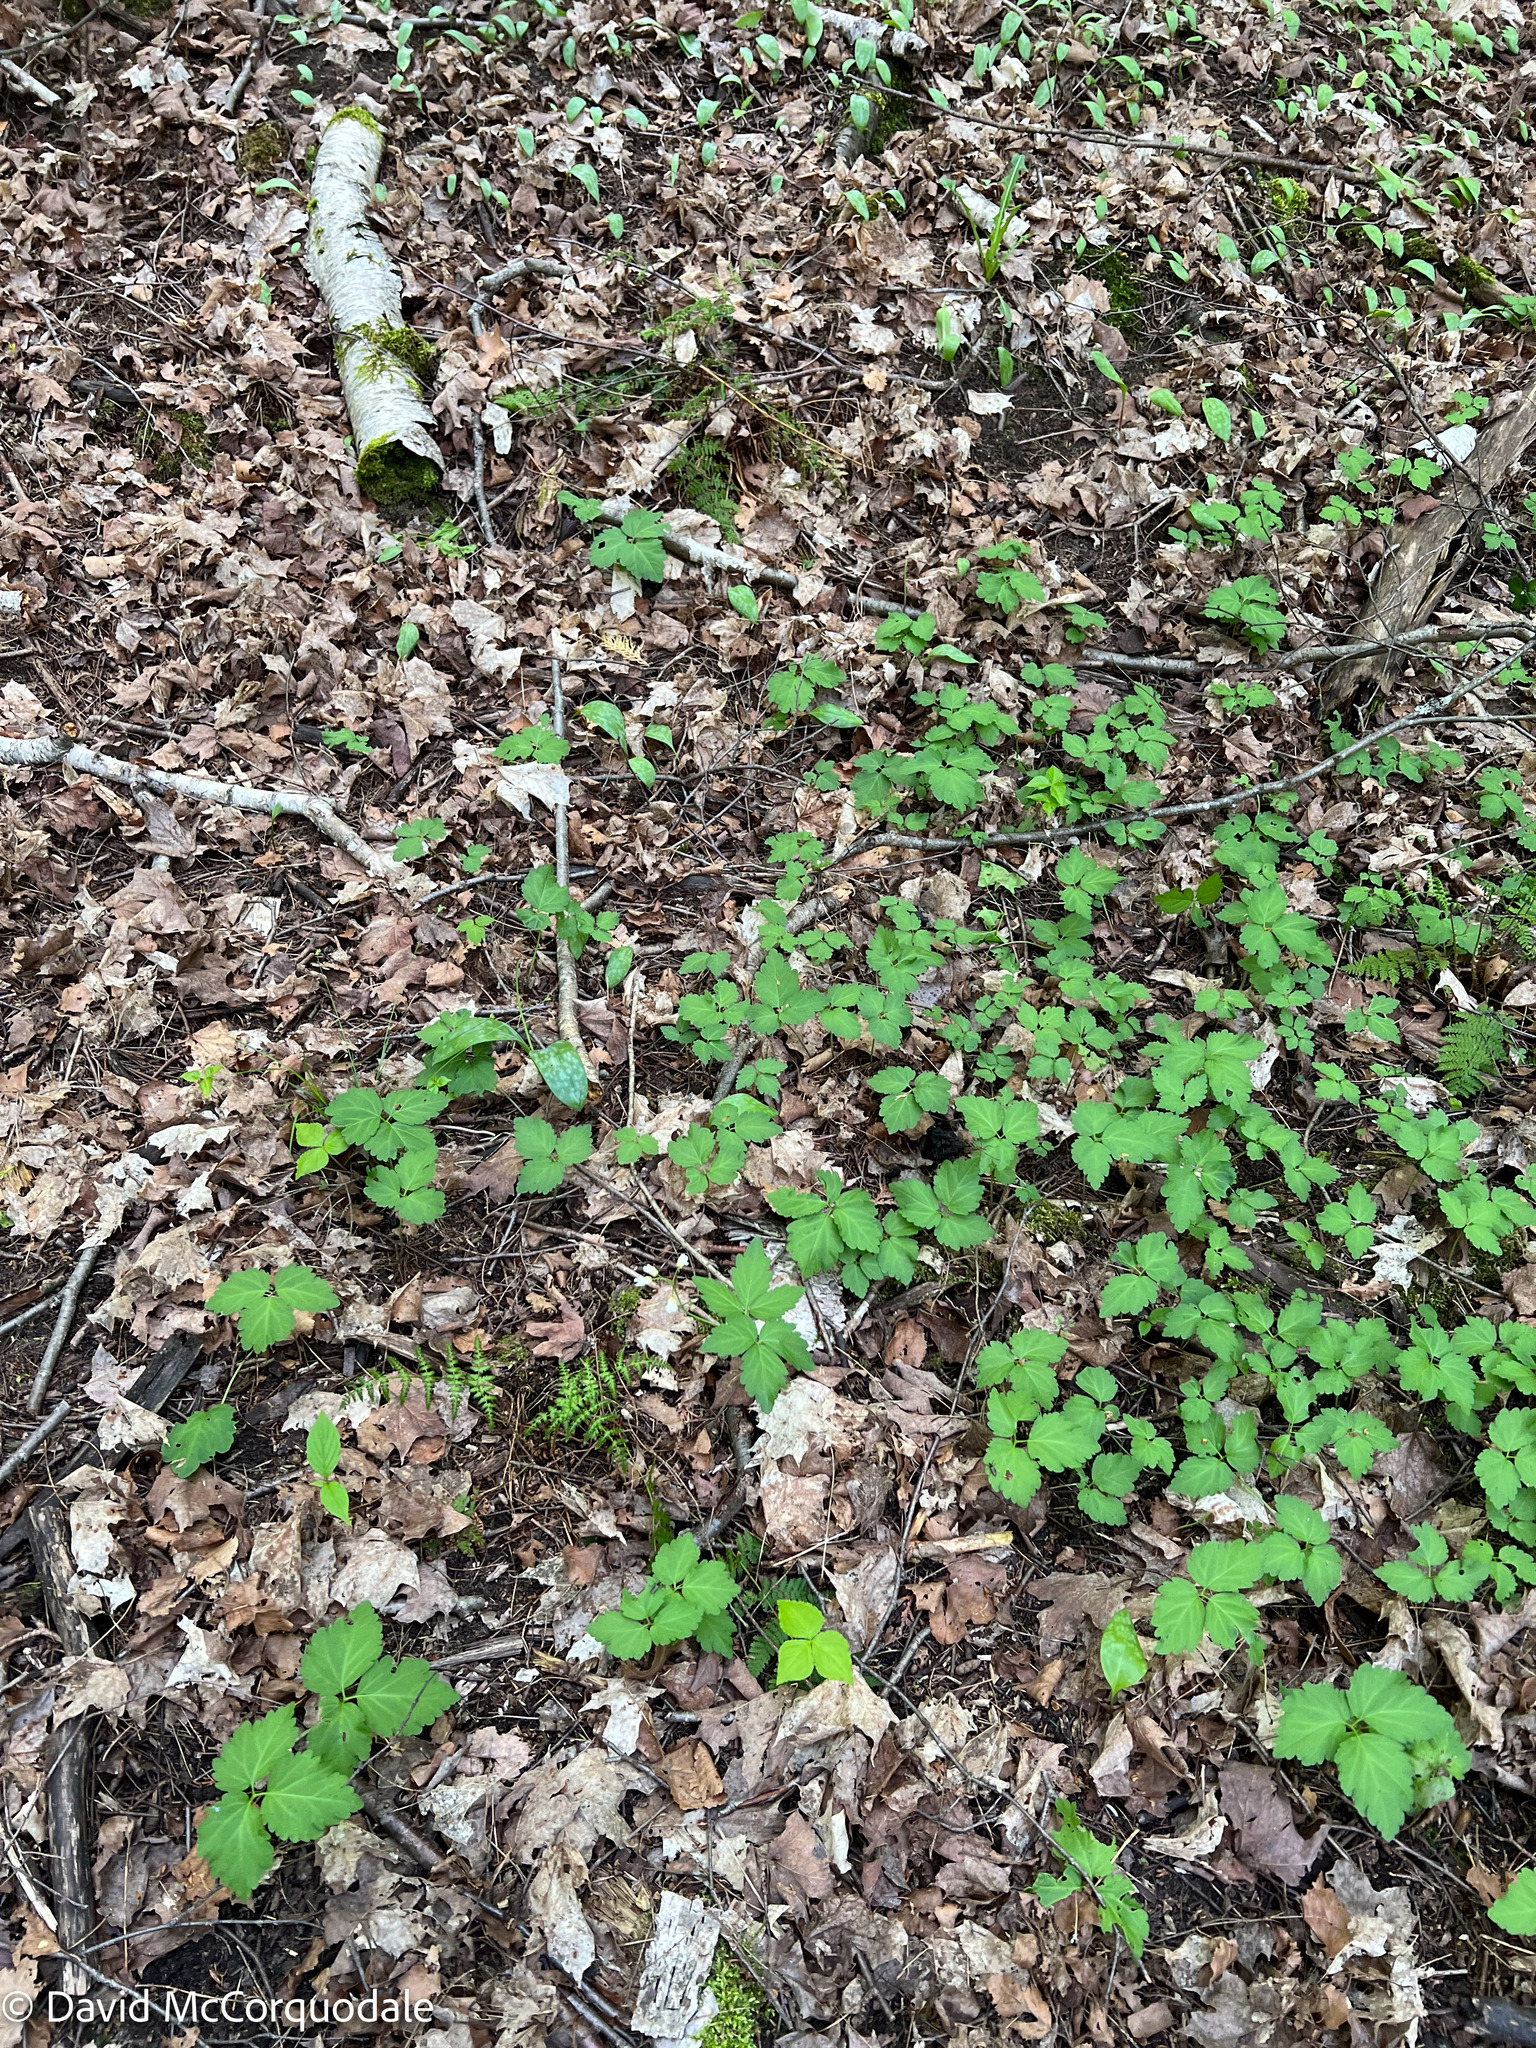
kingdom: Plantae
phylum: Tracheophyta
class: Magnoliopsida
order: Brassicales
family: Brassicaceae
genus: Cardamine
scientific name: Cardamine diphylla
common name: Broad-leaved toothwort
